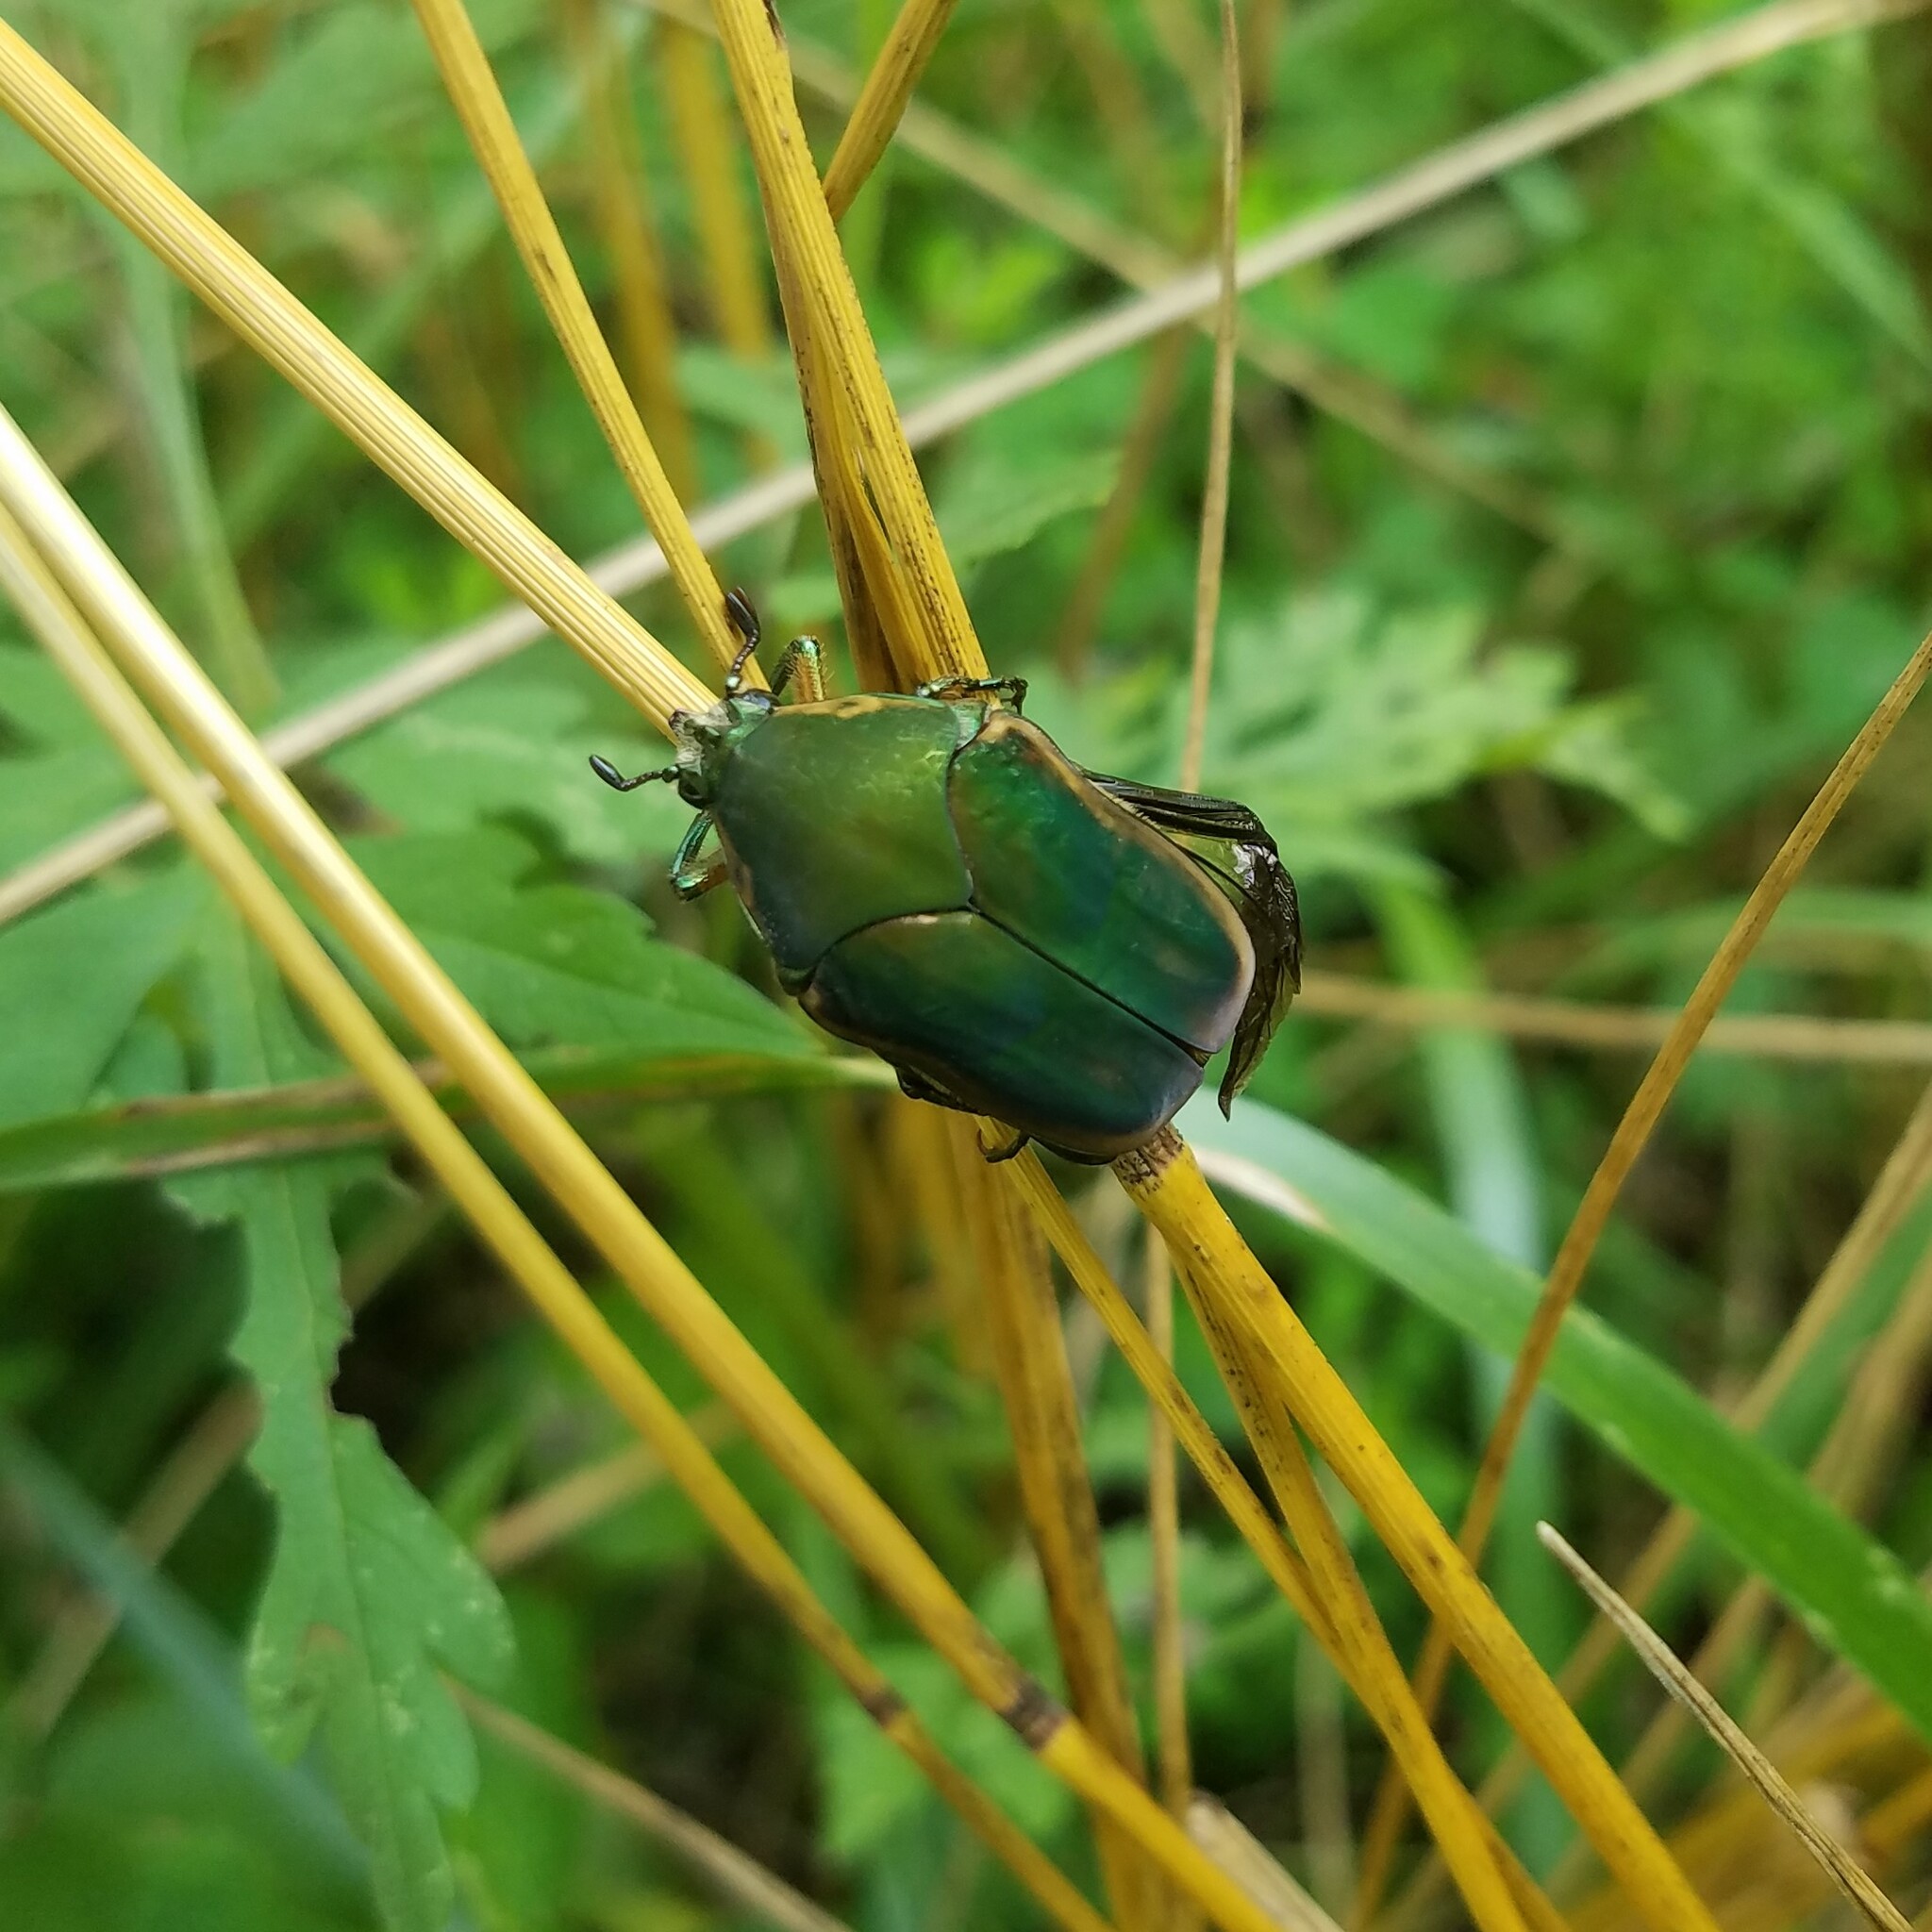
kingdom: Animalia
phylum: Arthropoda
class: Insecta
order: Coleoptera
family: Scarabaeidae
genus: Cotinis
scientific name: Cotinis nitida
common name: Common green june beetle
